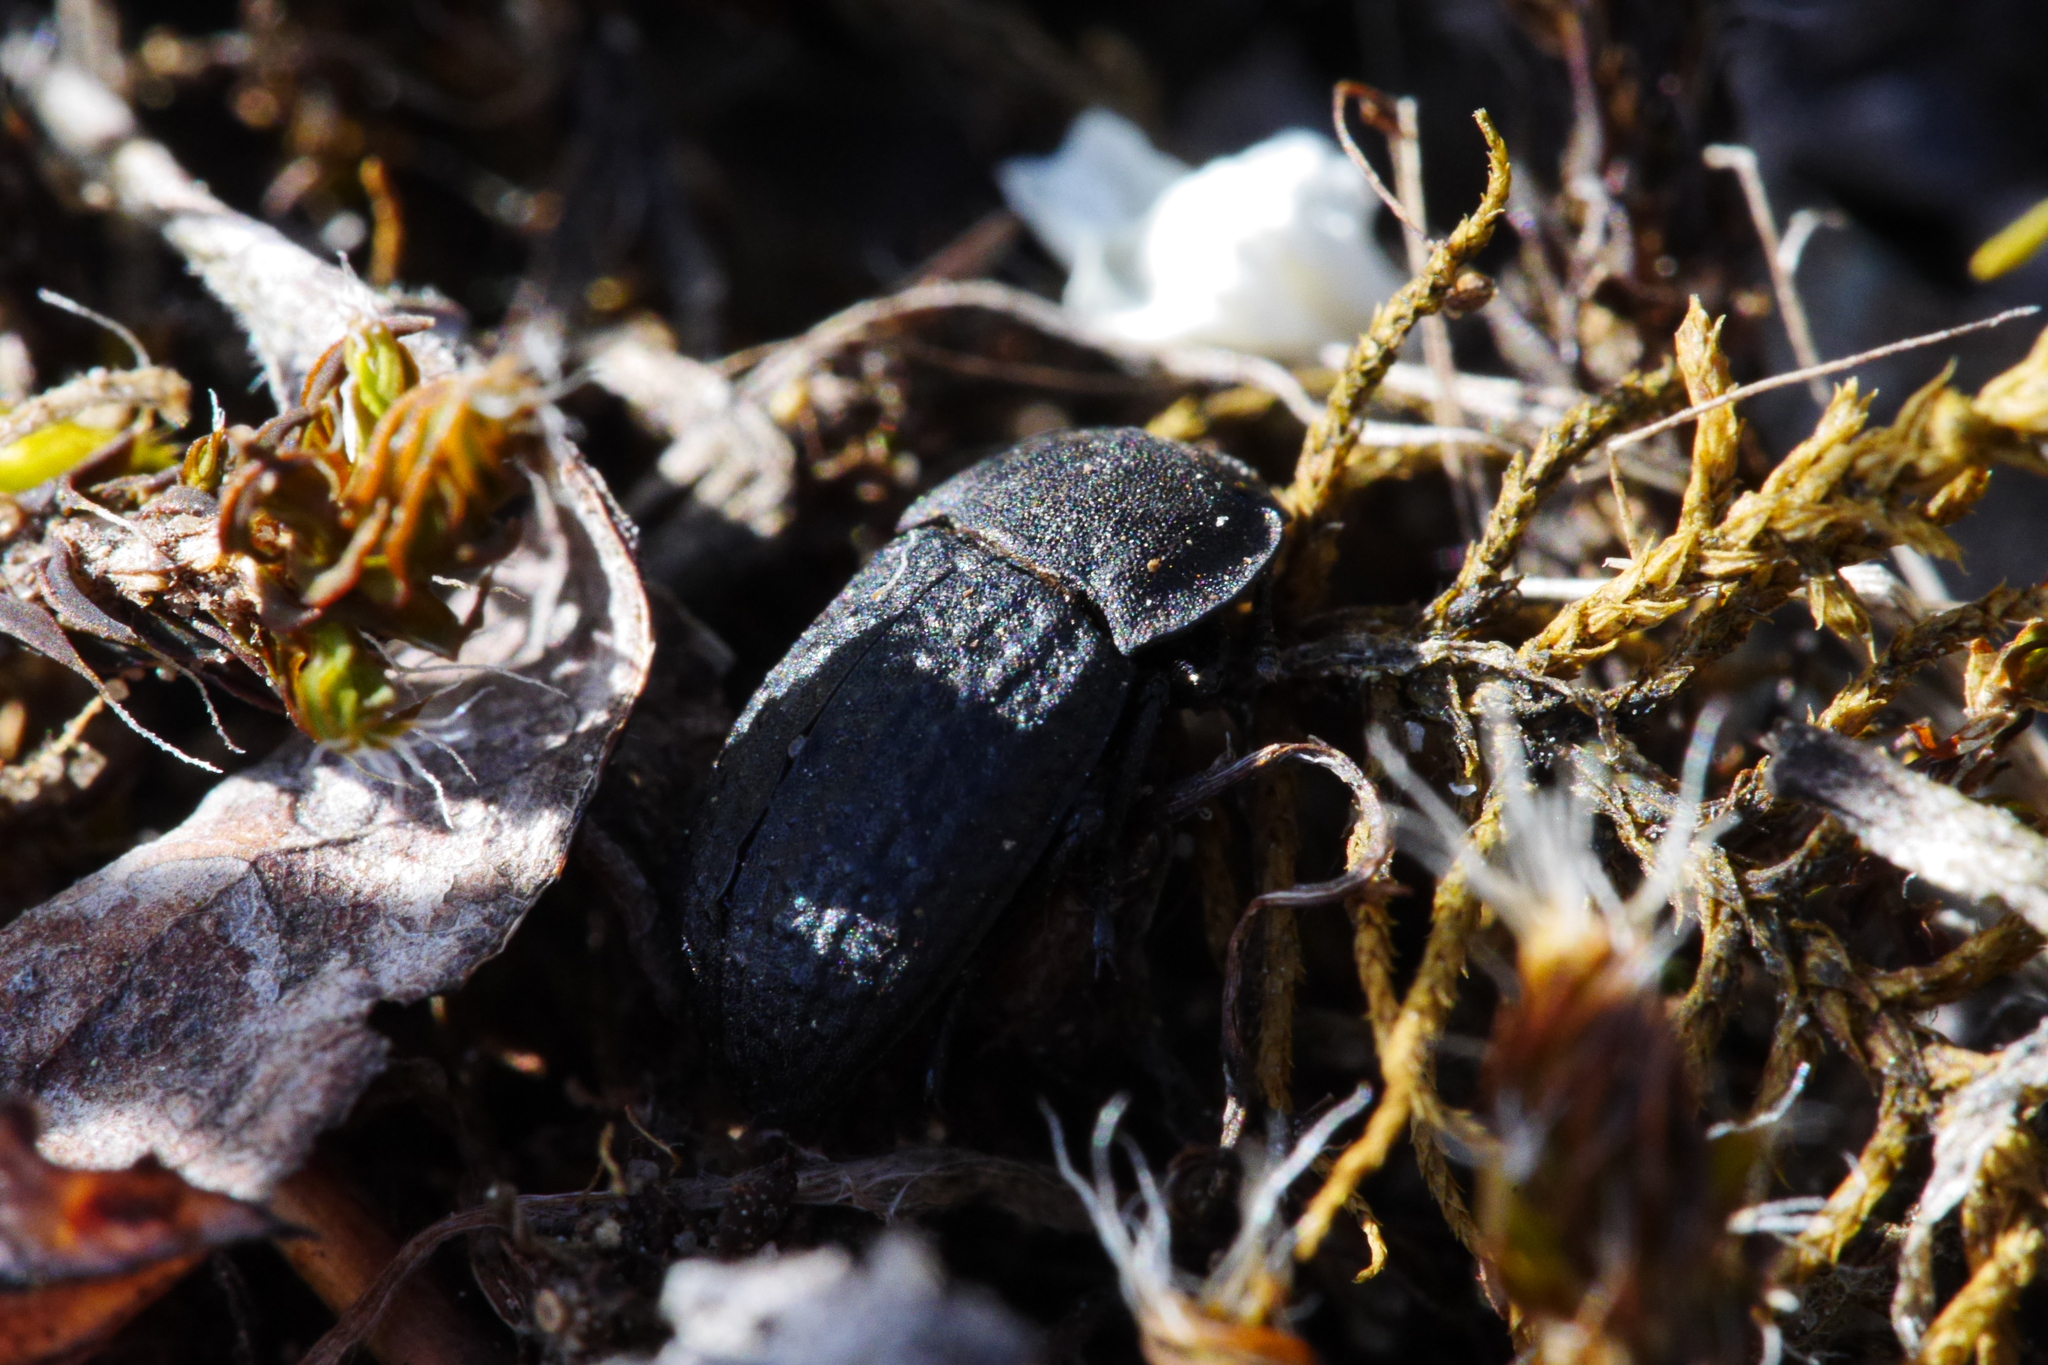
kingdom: Animalia
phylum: Arthropoda
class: Insecta
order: Coleoptera
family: Tenebrionidae
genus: Opatrum
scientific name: Opatrum sabulosum
